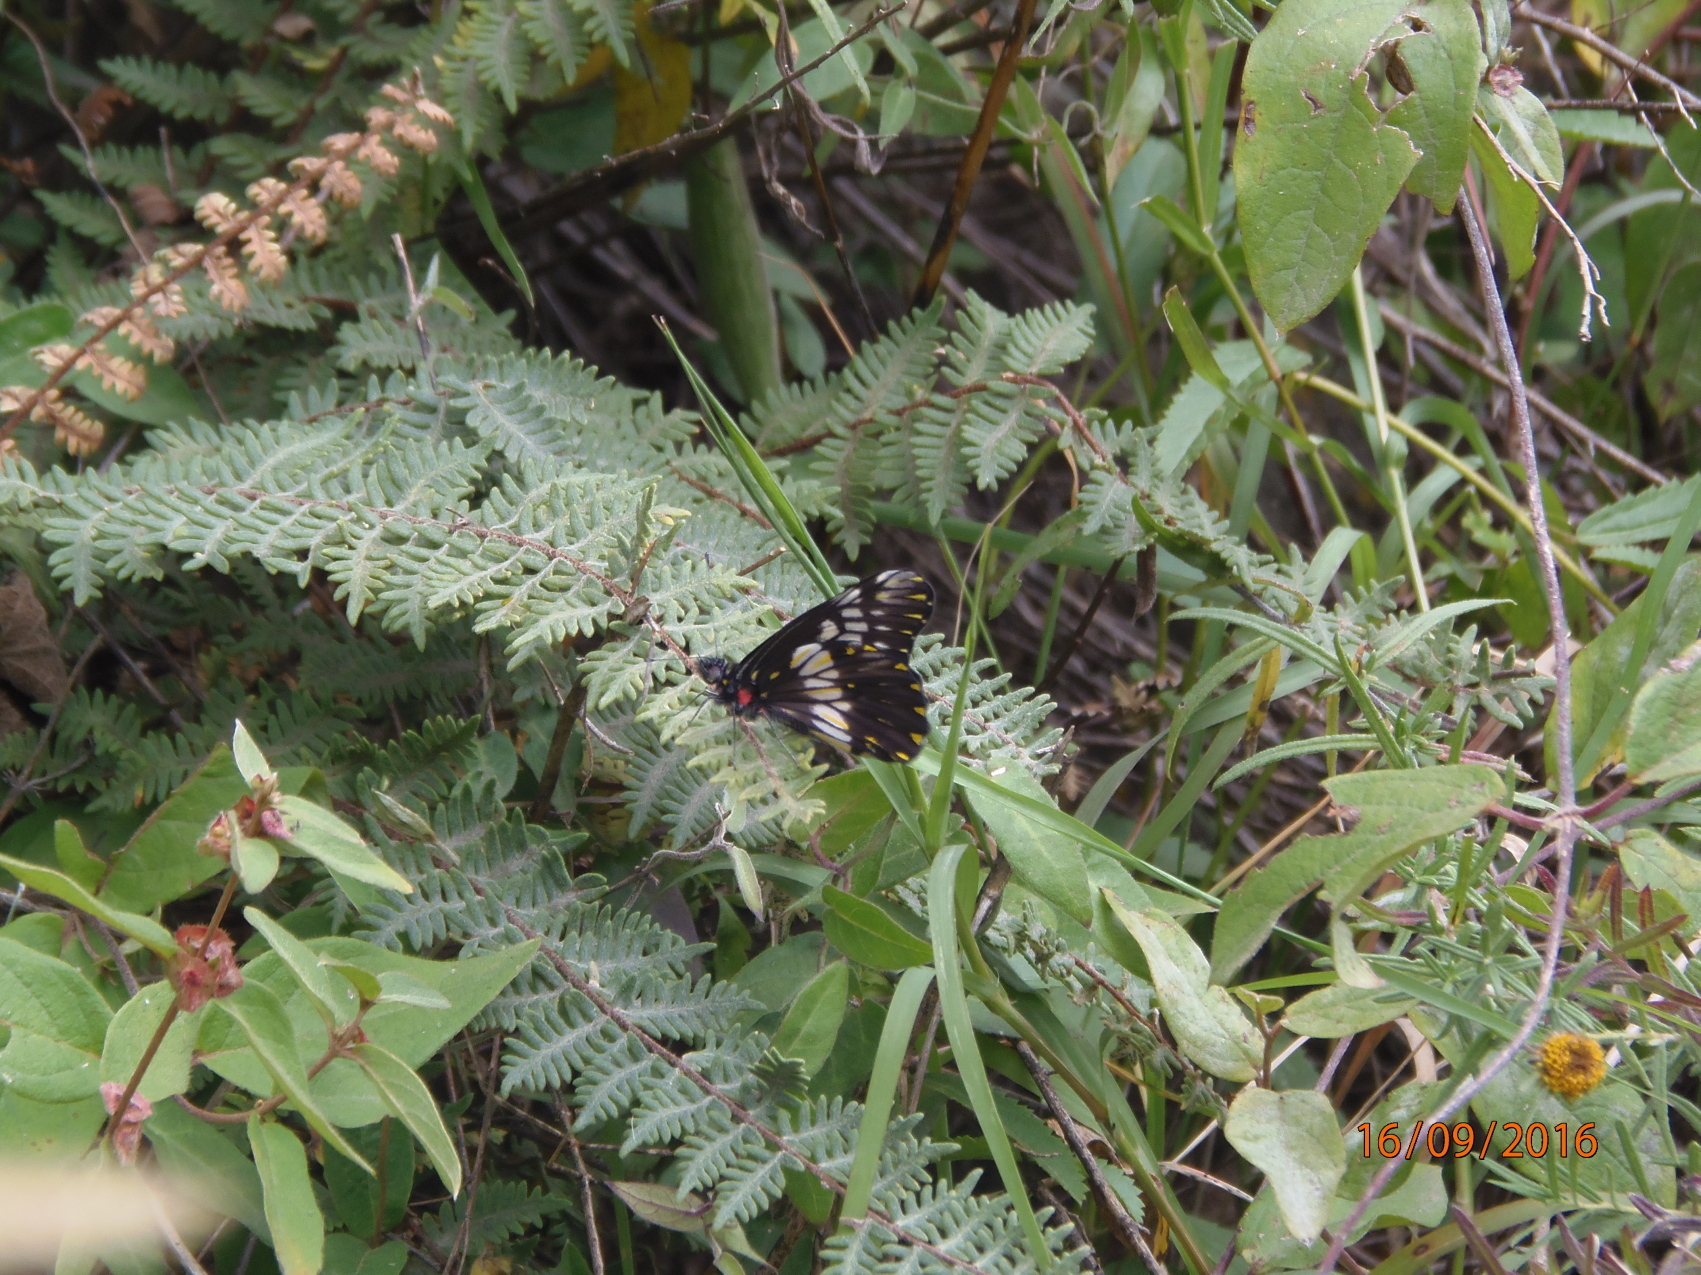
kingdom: Animalia
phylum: Arthropoda
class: Insecta
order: Lepidoptera
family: Pieridae
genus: Archonias
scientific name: Archonias nimbice
